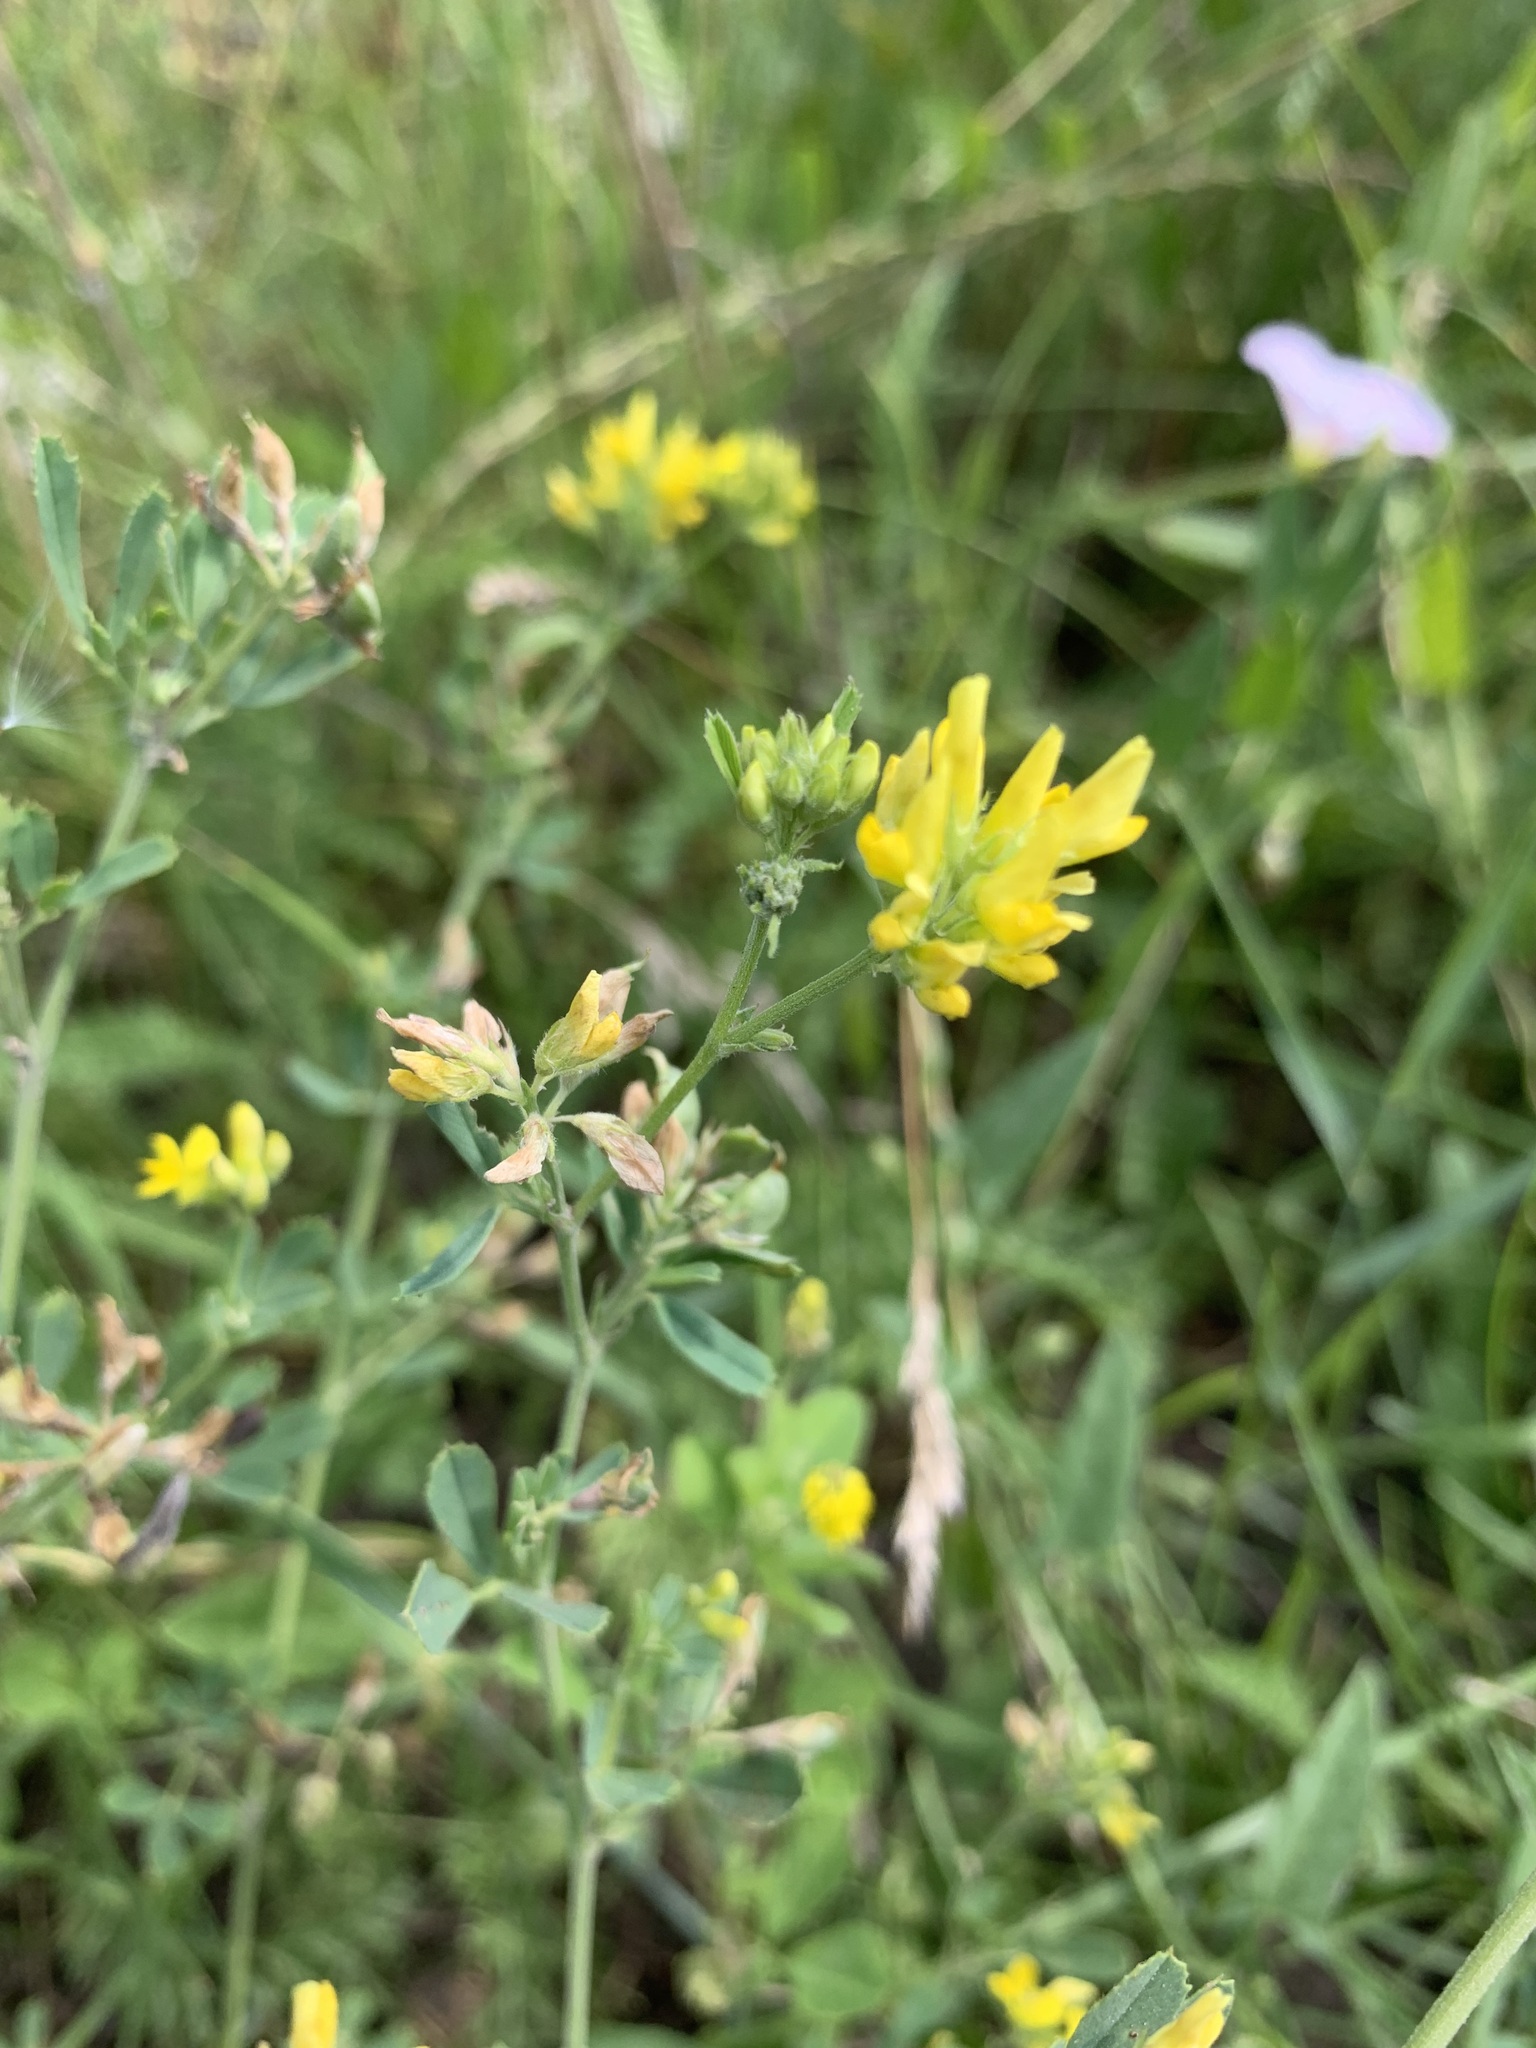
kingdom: Plantae
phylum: Tracheophyta
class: Magnoliopsida
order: Fabales
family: Fabaceae
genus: Medicago
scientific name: Medicago falcata
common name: Sickle medick
